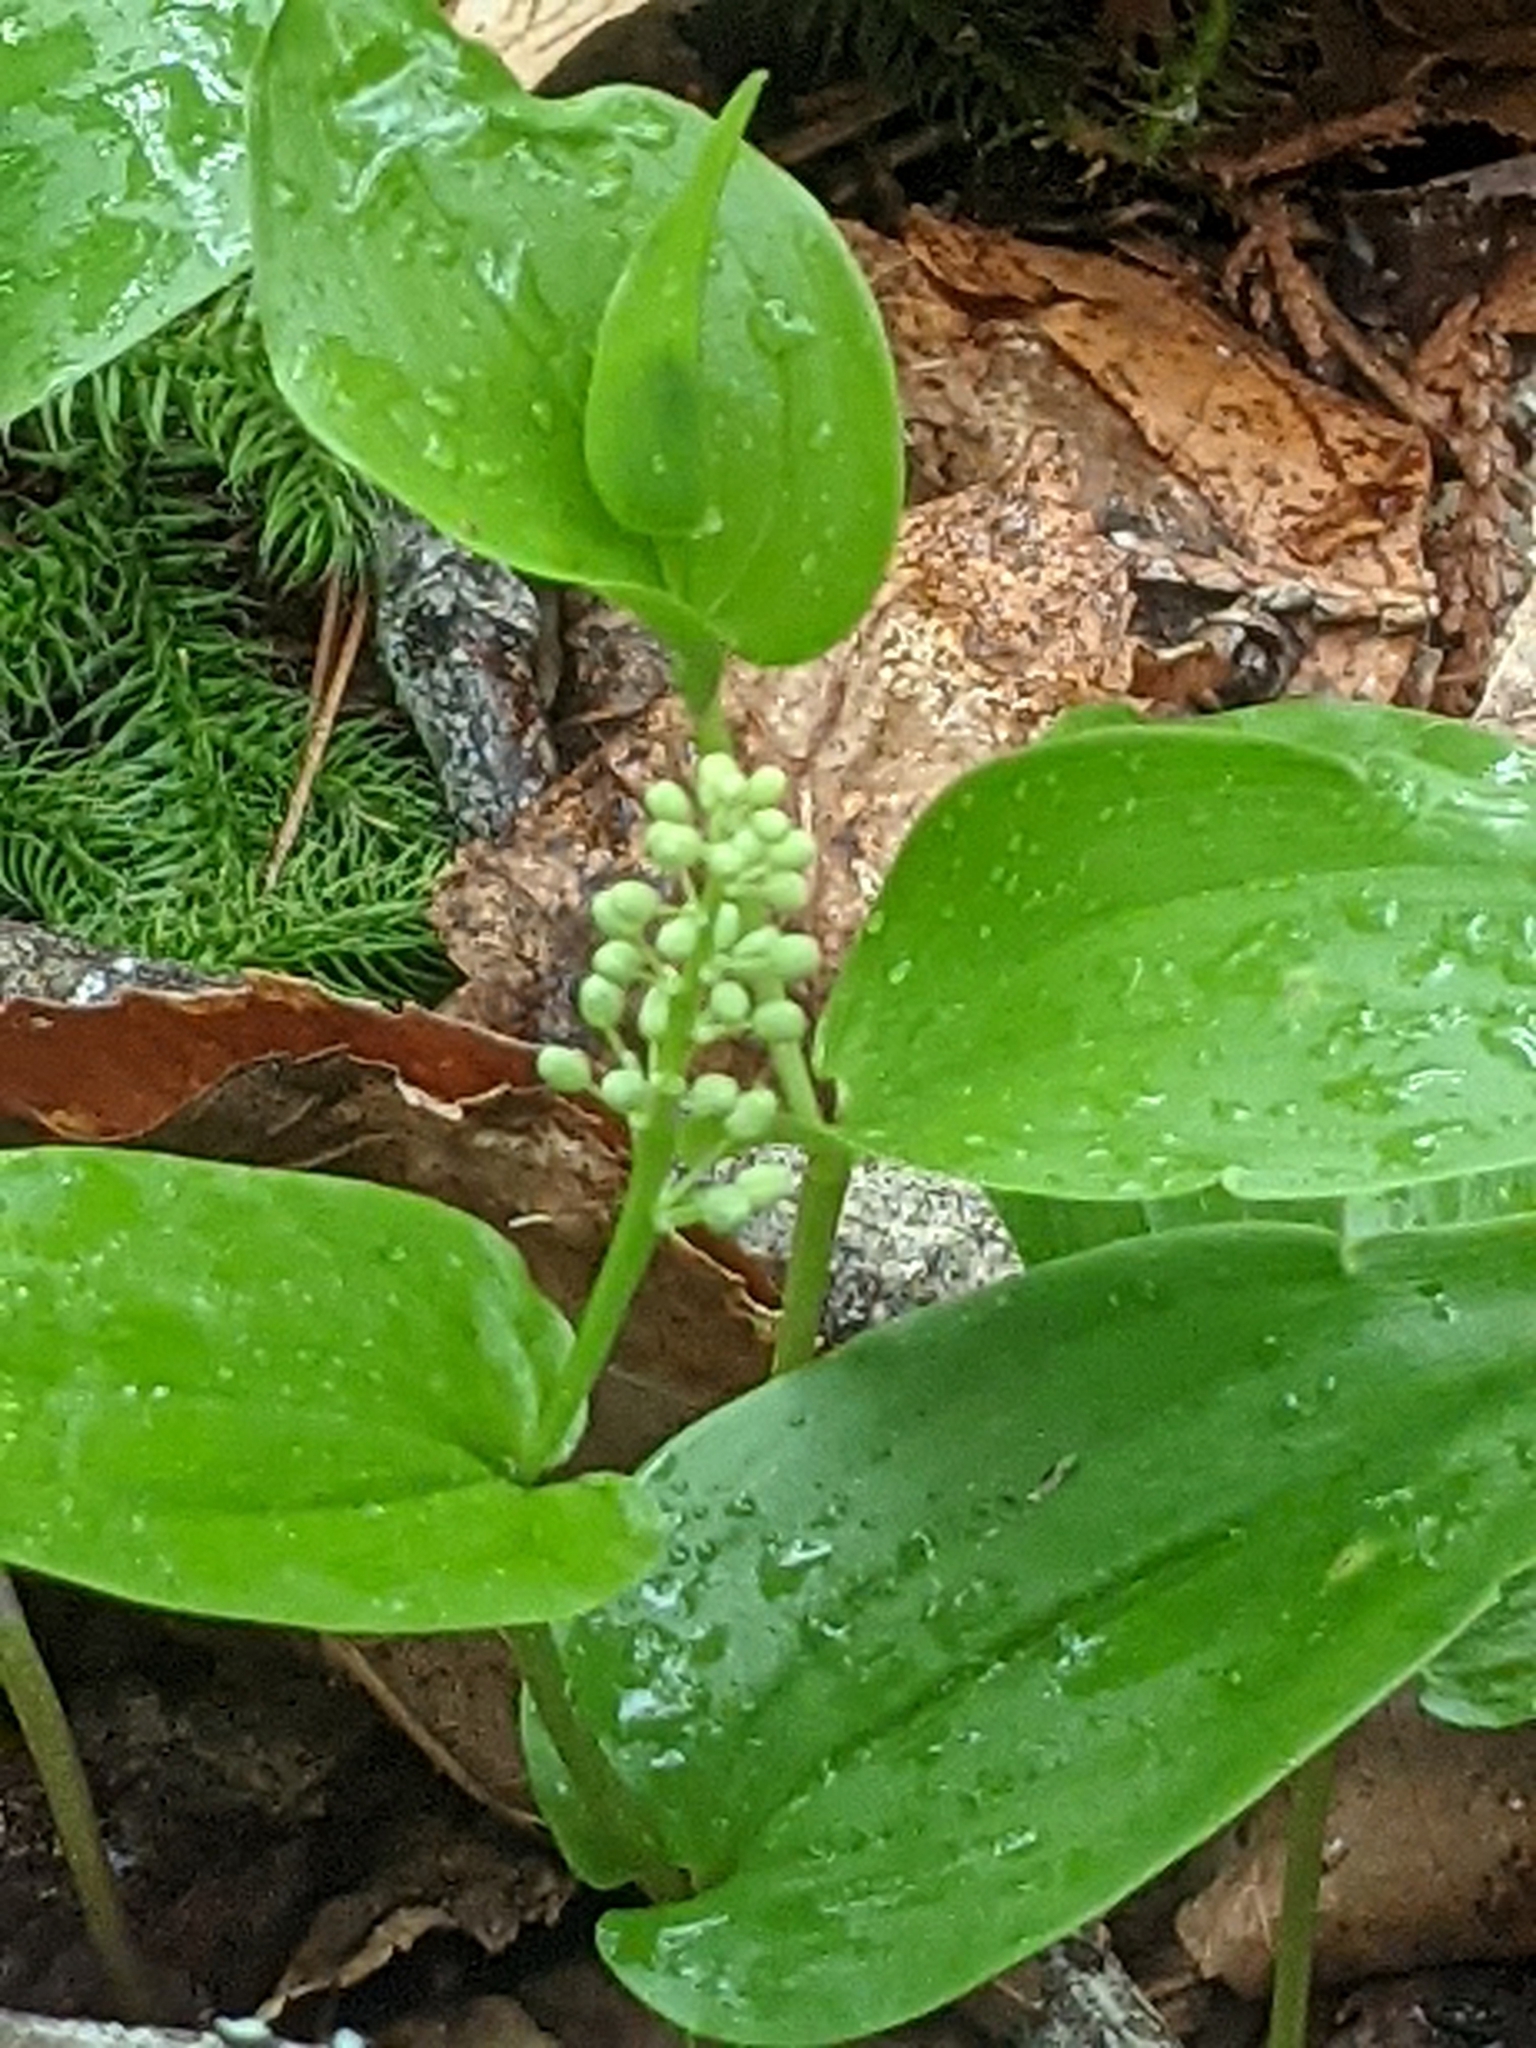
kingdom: Plantae
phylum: Tracheophyta
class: Liliopsida
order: Asparagales
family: Asparagaceae
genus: Maianthemum
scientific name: Maianthemum canadense
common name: False lily-of-the-valley
